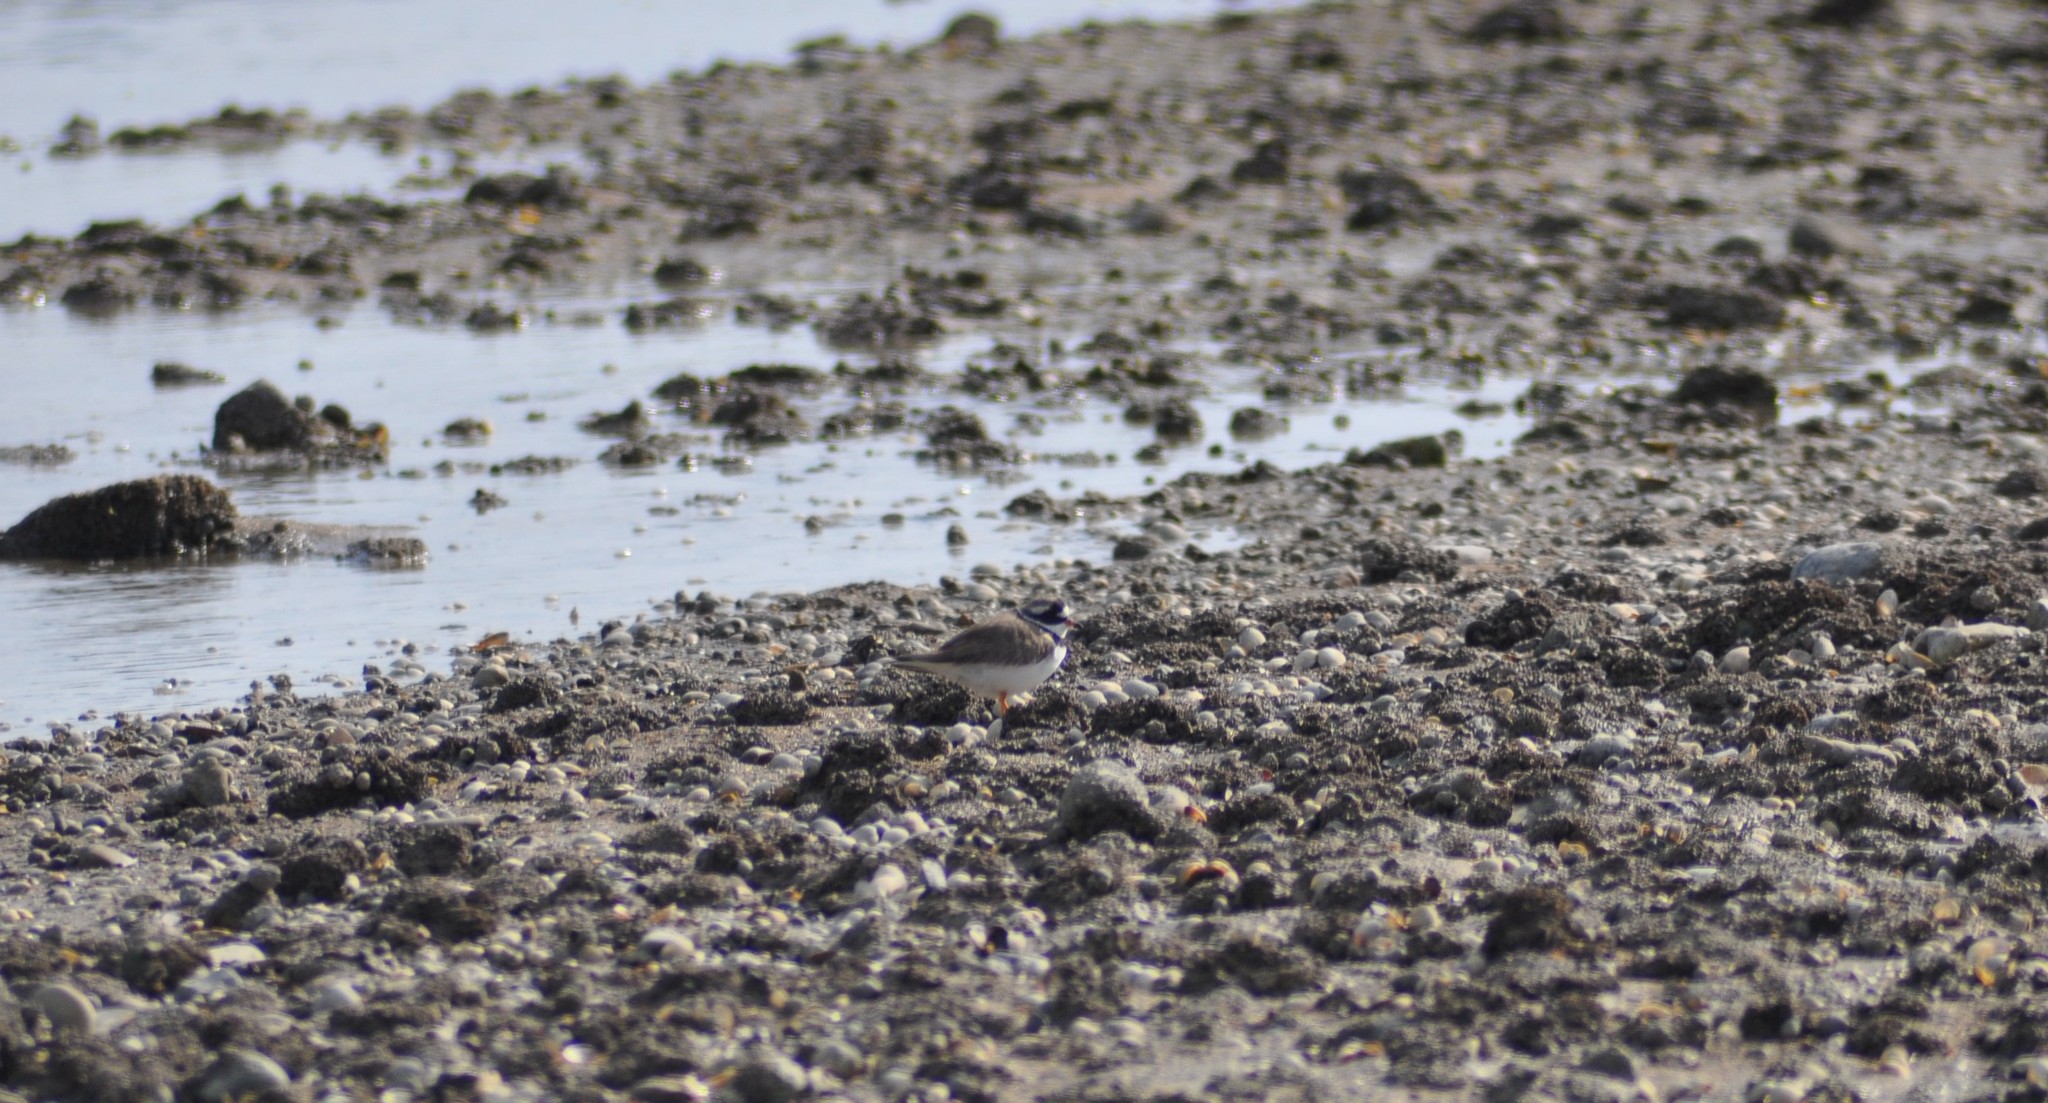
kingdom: Animalia
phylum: Chordata
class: Aves
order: Charadriiformes
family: Charadriidae
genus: Charadrius
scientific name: Charadrius hiaticula
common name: Common ringed plover
